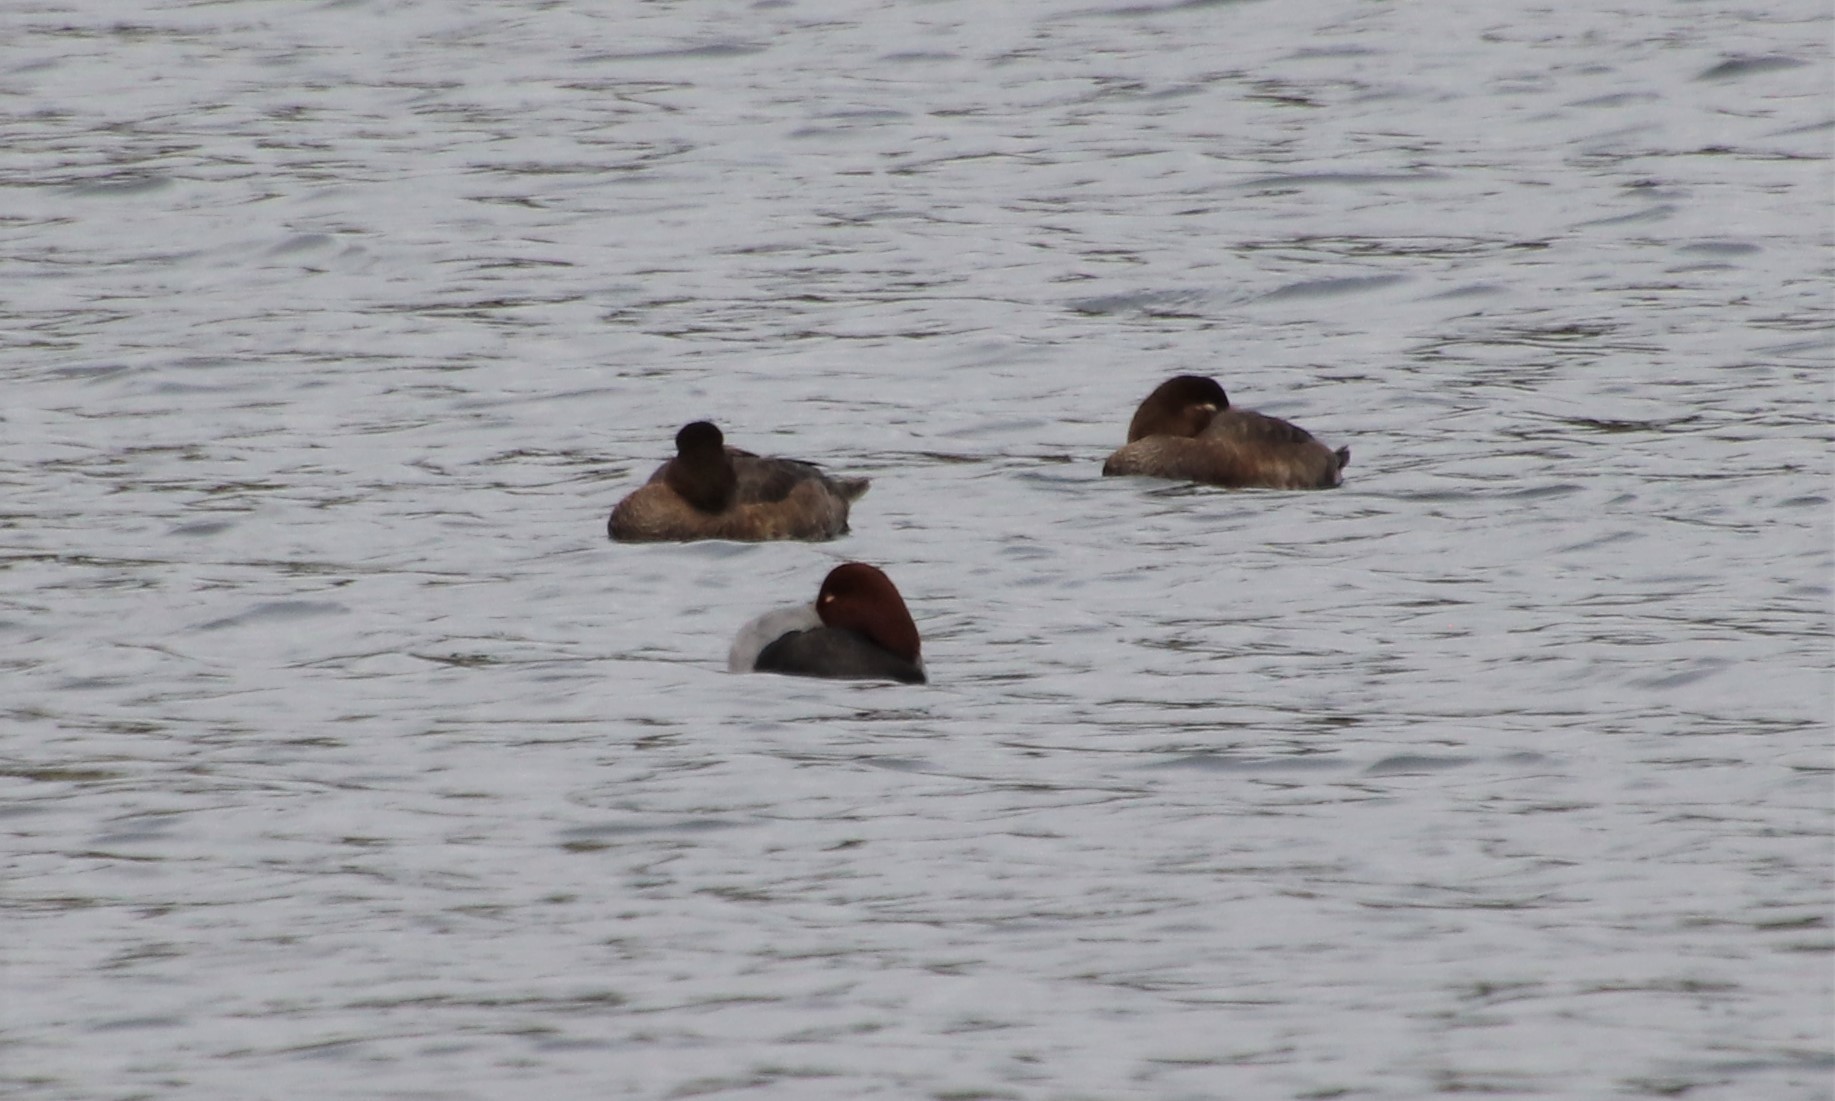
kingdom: Animalia
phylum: Chordata
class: Aves
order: Anseriformes
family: Anatidae
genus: Aythya
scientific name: Aythya americana
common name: Redhead
